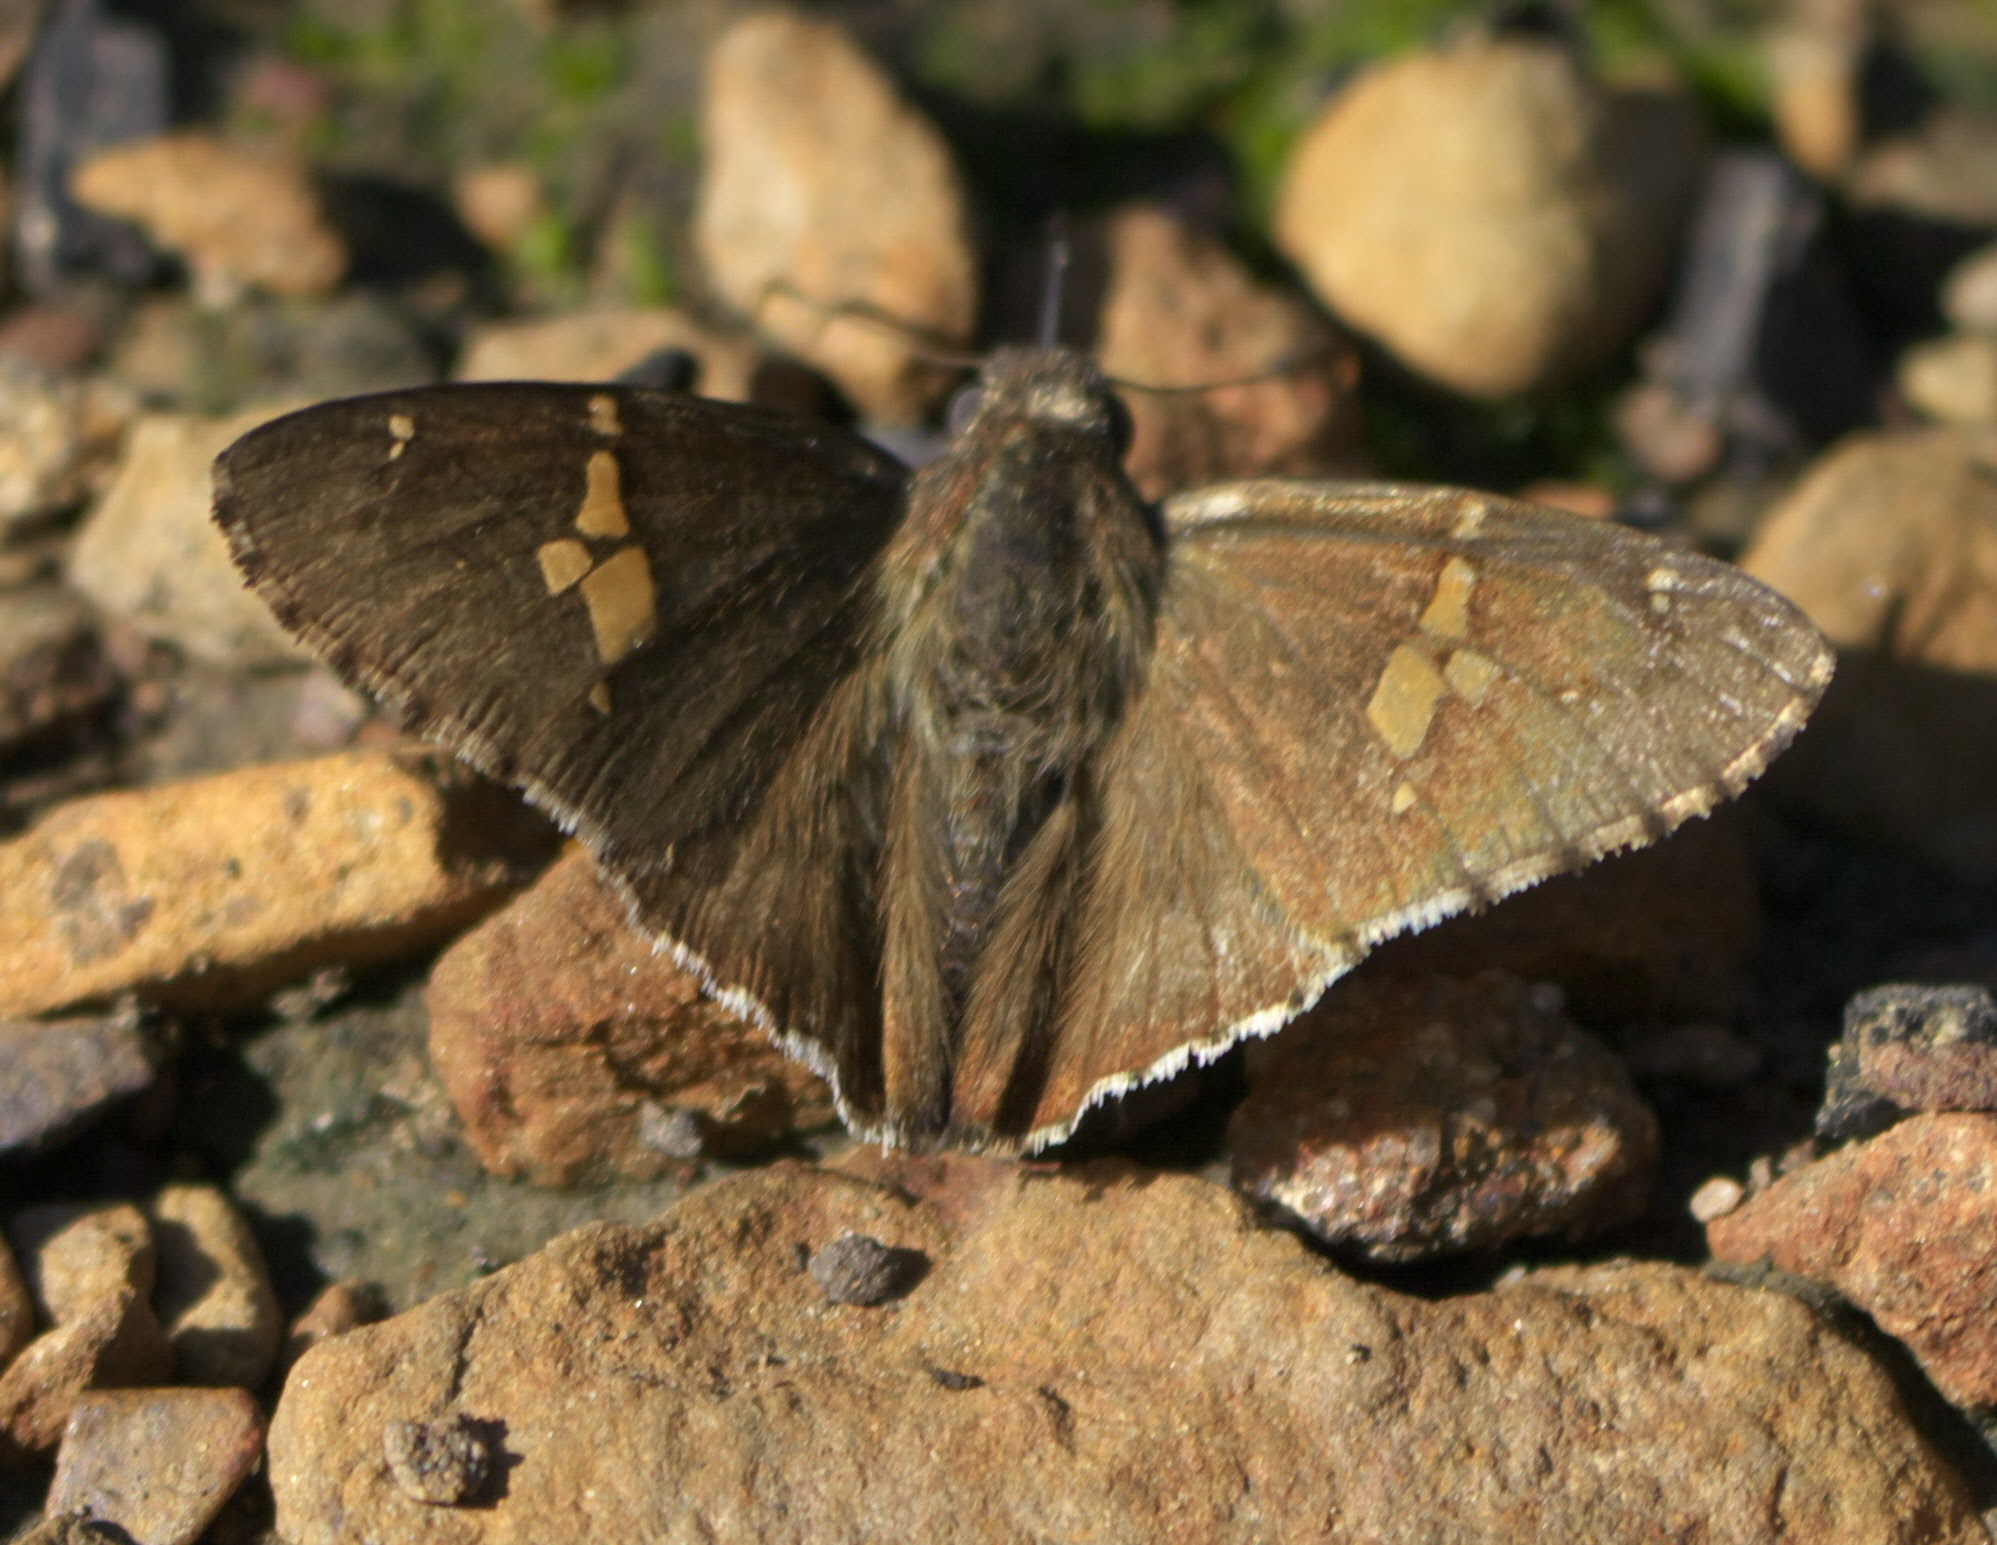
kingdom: Animalia
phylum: Arthropoda
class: Insecta
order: Lepidoptera
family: Hesperiidae
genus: Thorybes
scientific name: Thorybes lyciades
